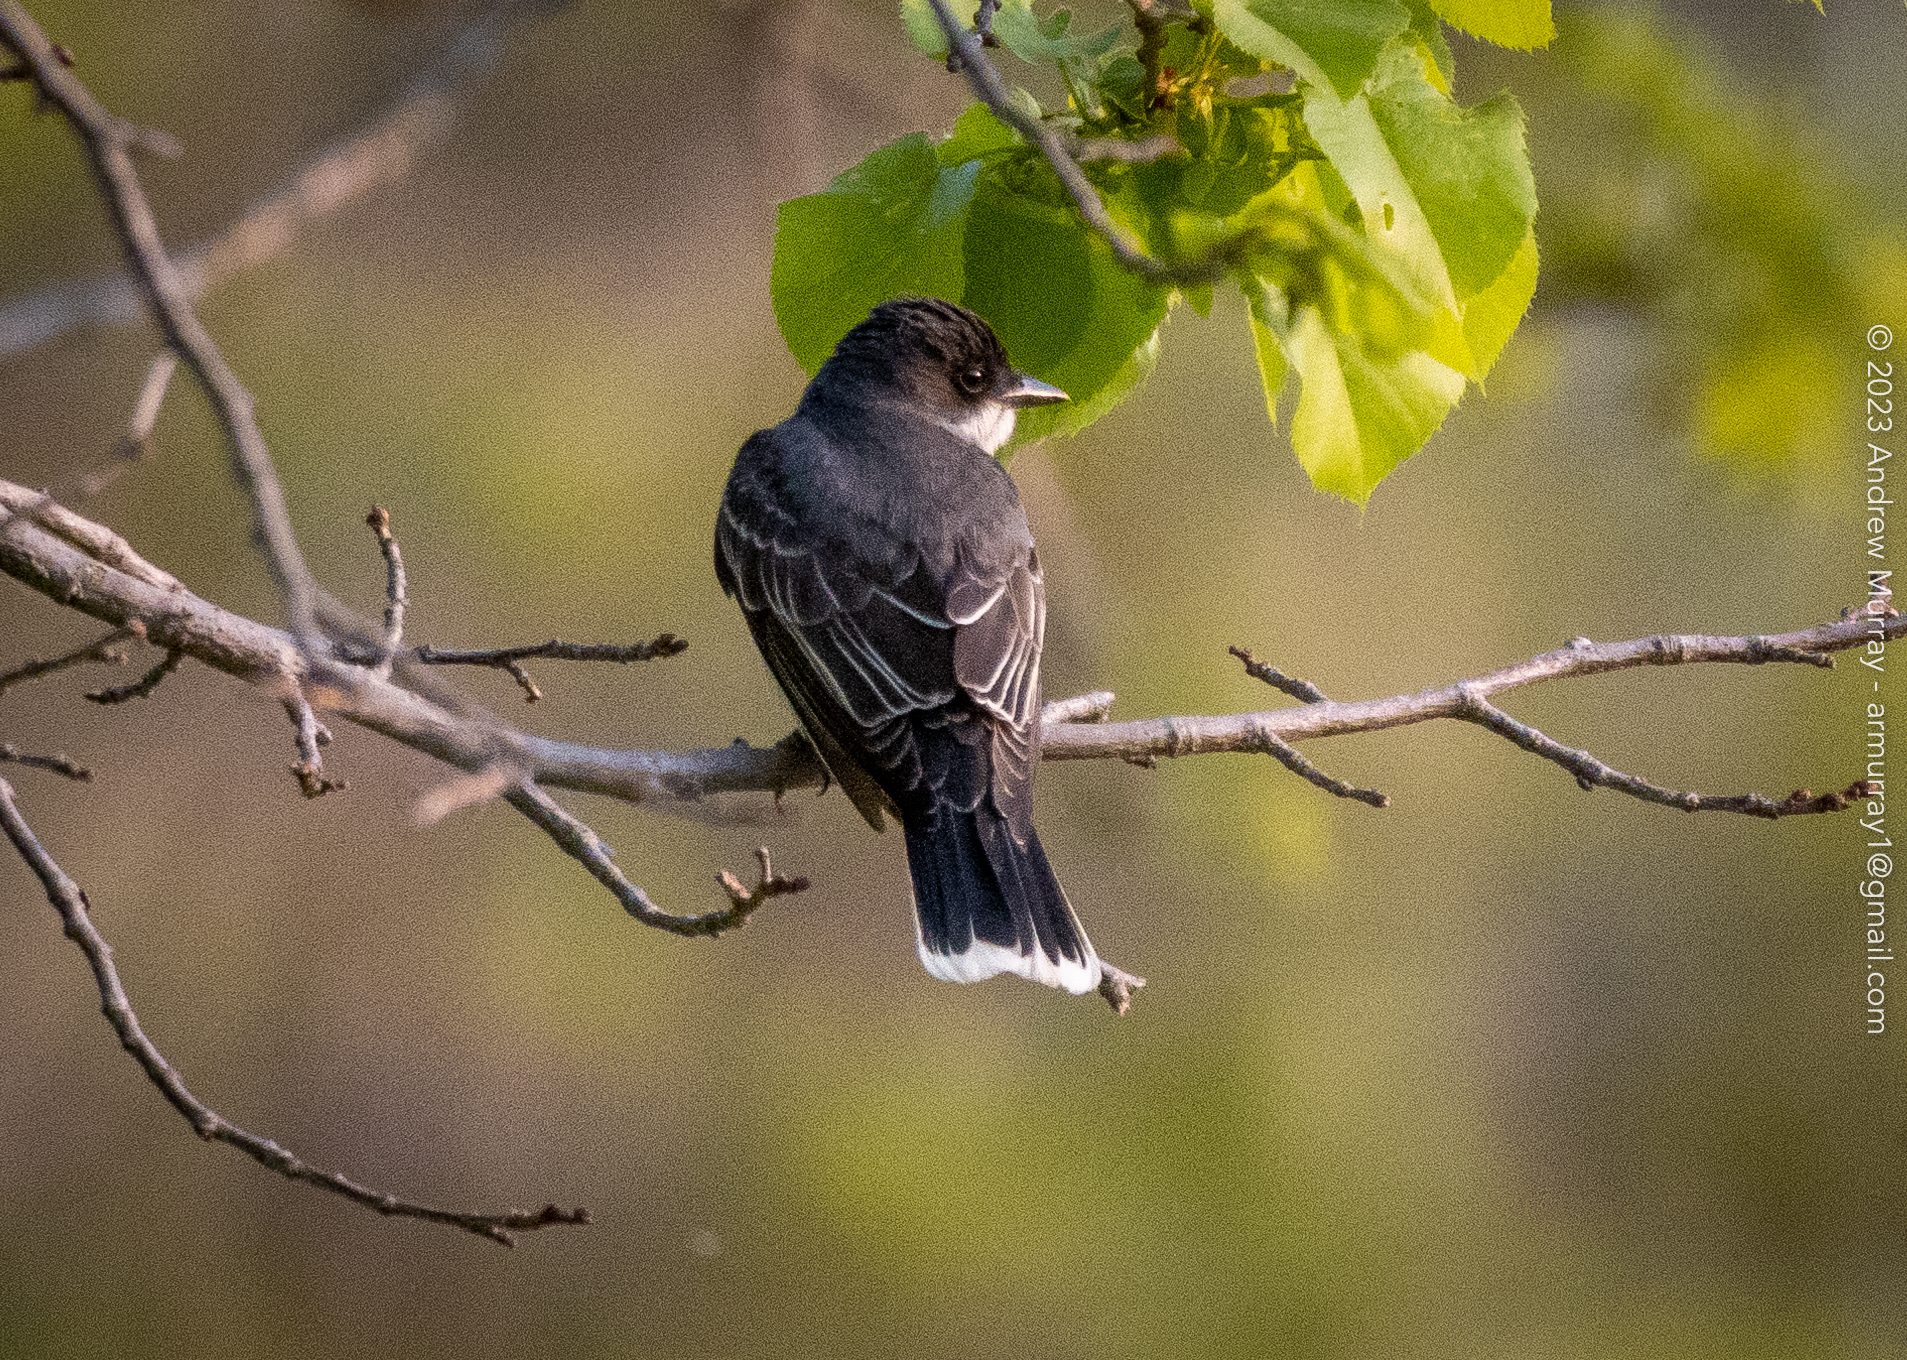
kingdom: Animalia
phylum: Chordata
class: Aves
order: Passeriformes
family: Tyrannidae
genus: Tyrannus
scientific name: Tyrannus tyrannus
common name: Eastern kingbird
